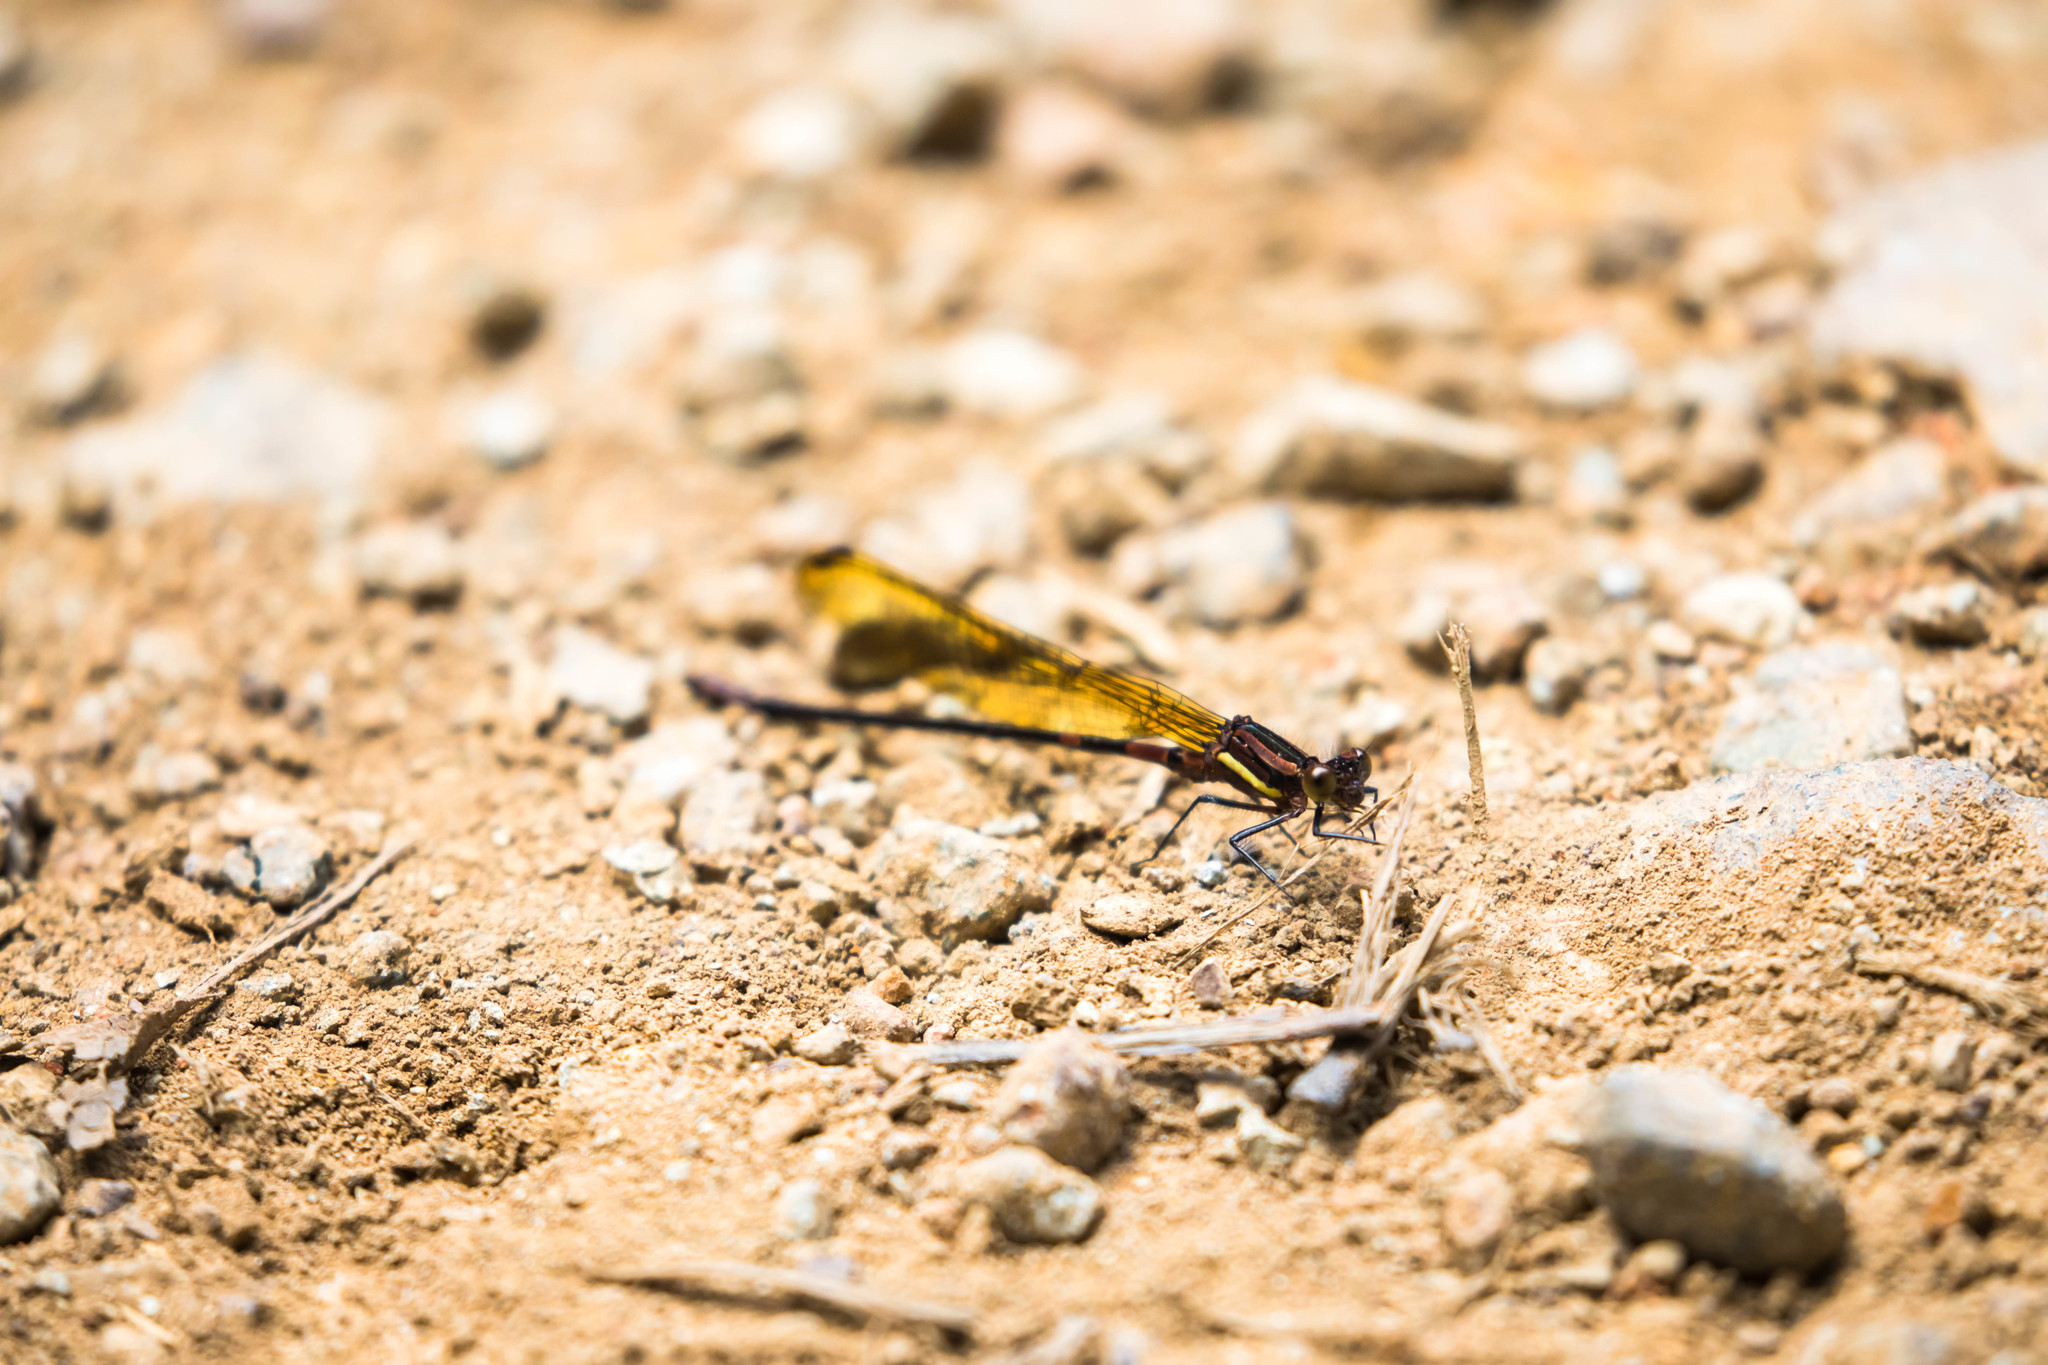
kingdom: Animalia
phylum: Arthropoda
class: Insecta
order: Odonata
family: Coenagrionidae
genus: Argia
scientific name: Argia terira
